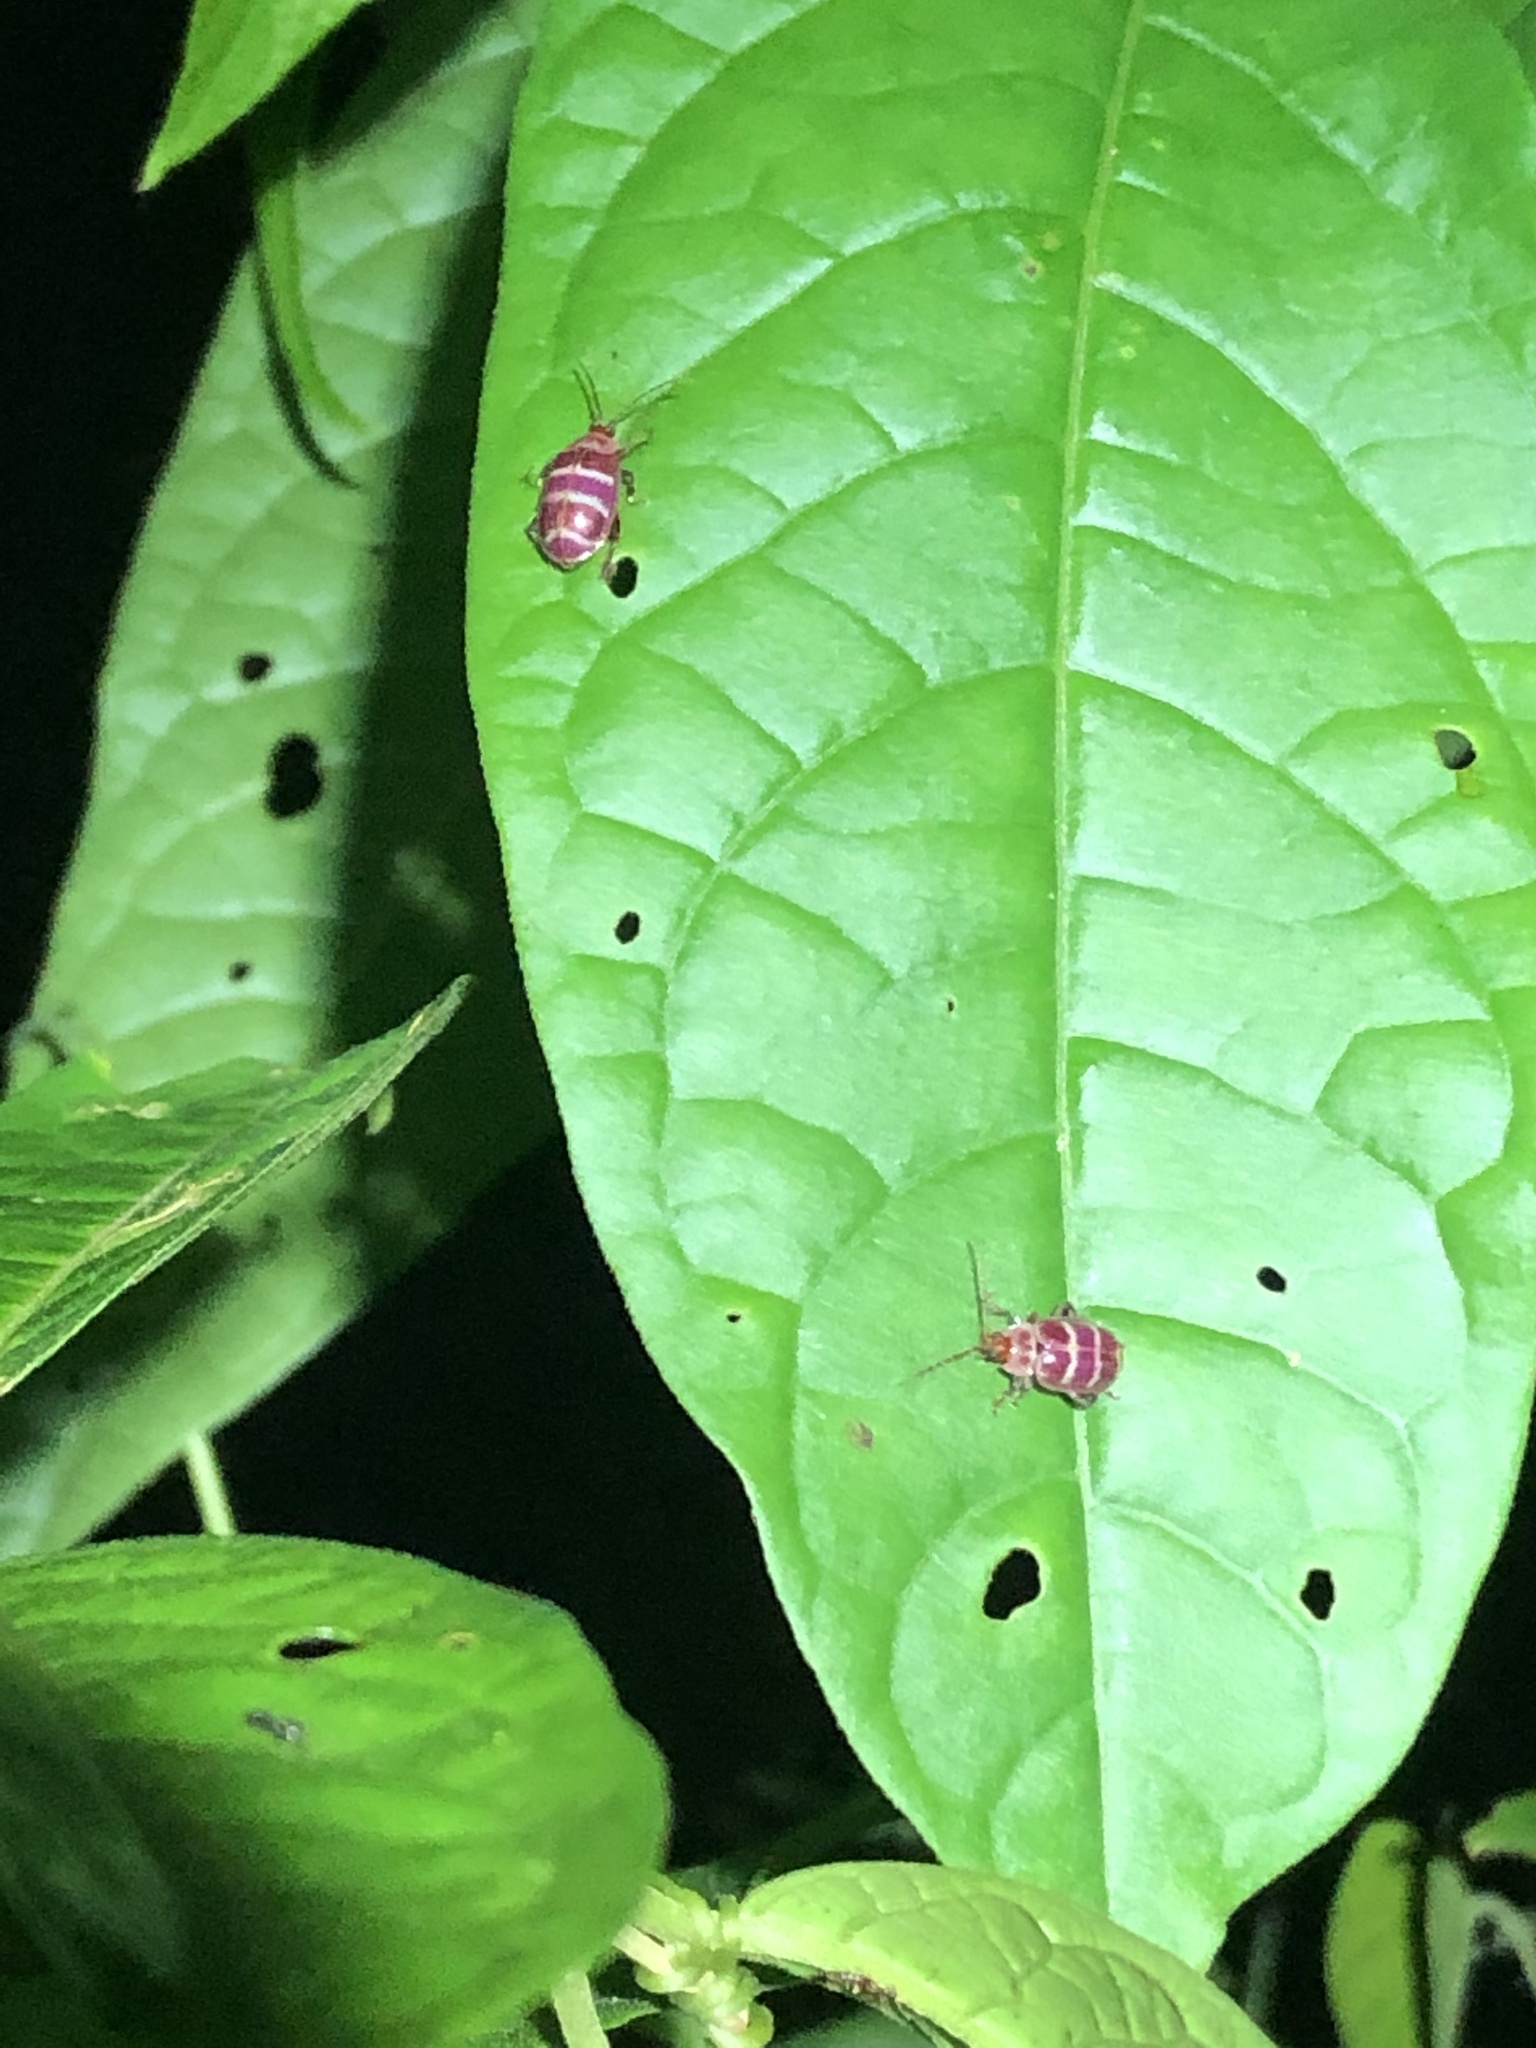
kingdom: Animalia
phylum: Arthropoda
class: Insecta
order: Coleoptera
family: Chrysomelidae
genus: Asphaera
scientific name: Asphaera
